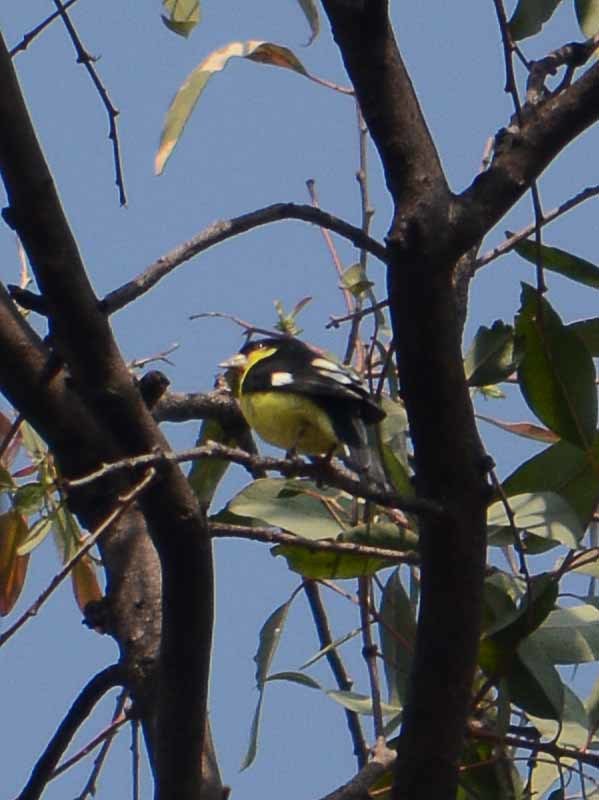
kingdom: Animalia
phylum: Chordata
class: Aves
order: Passeriformes
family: Fringillidae
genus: Spinus
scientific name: Spinus psaltria
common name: Lesser goldfinch
